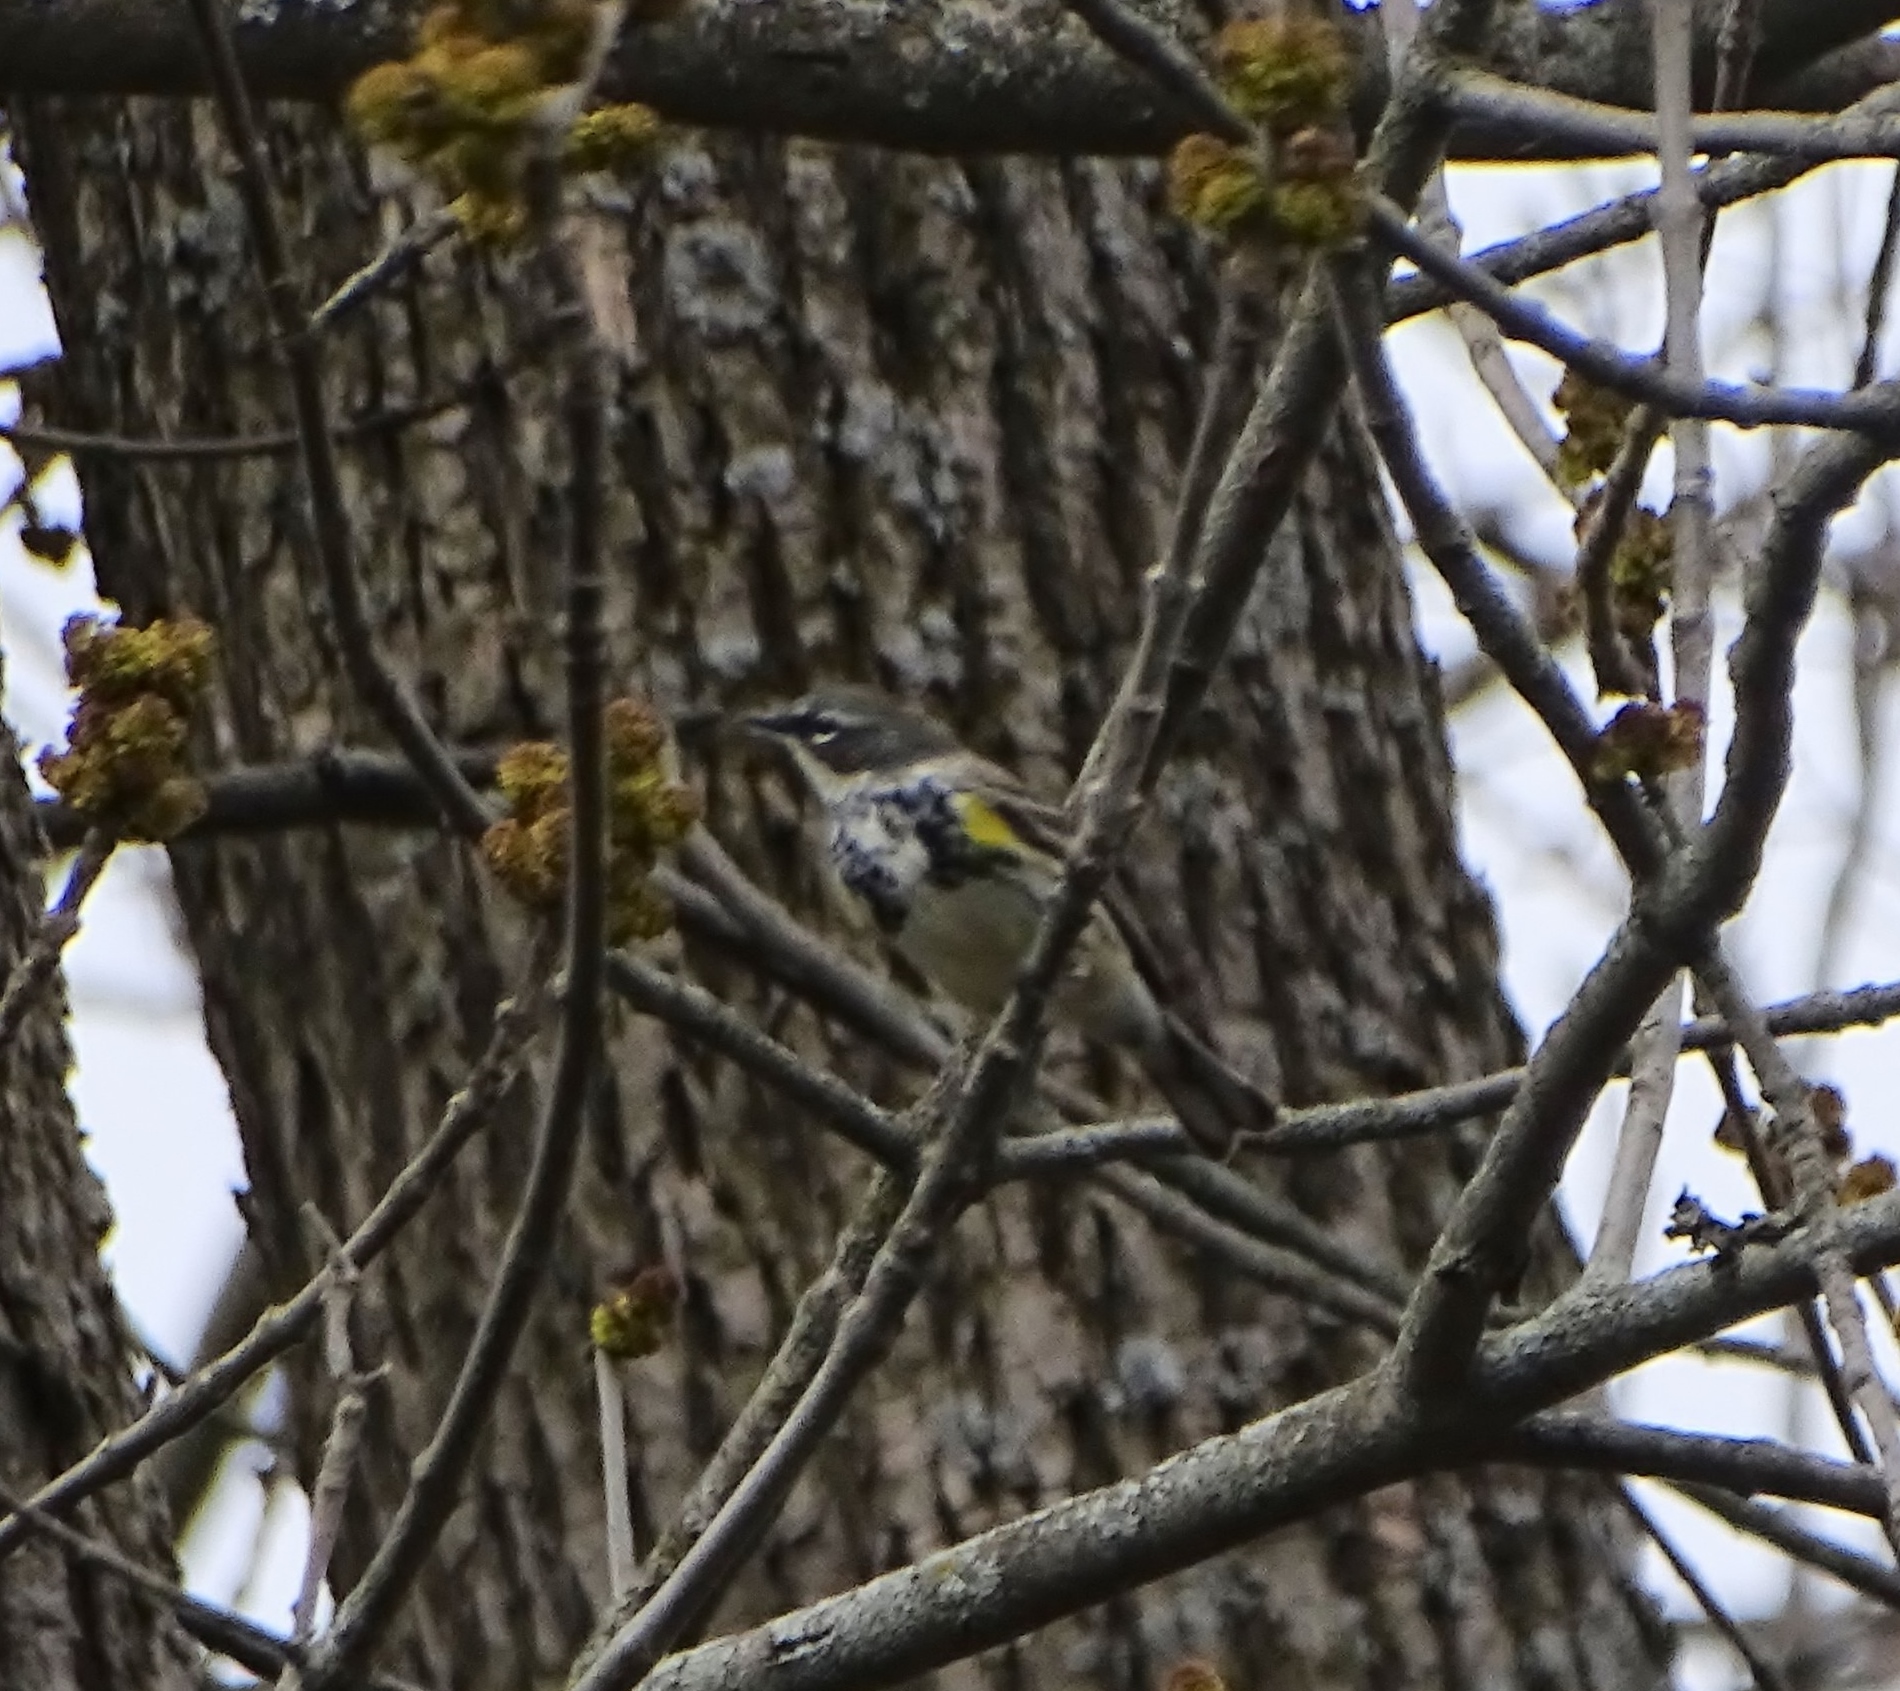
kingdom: Animalia
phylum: Chordata
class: Aves
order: Passeriformes
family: Parulidae
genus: Setophaga
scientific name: Setophaga coronata
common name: Myrtle warbler
